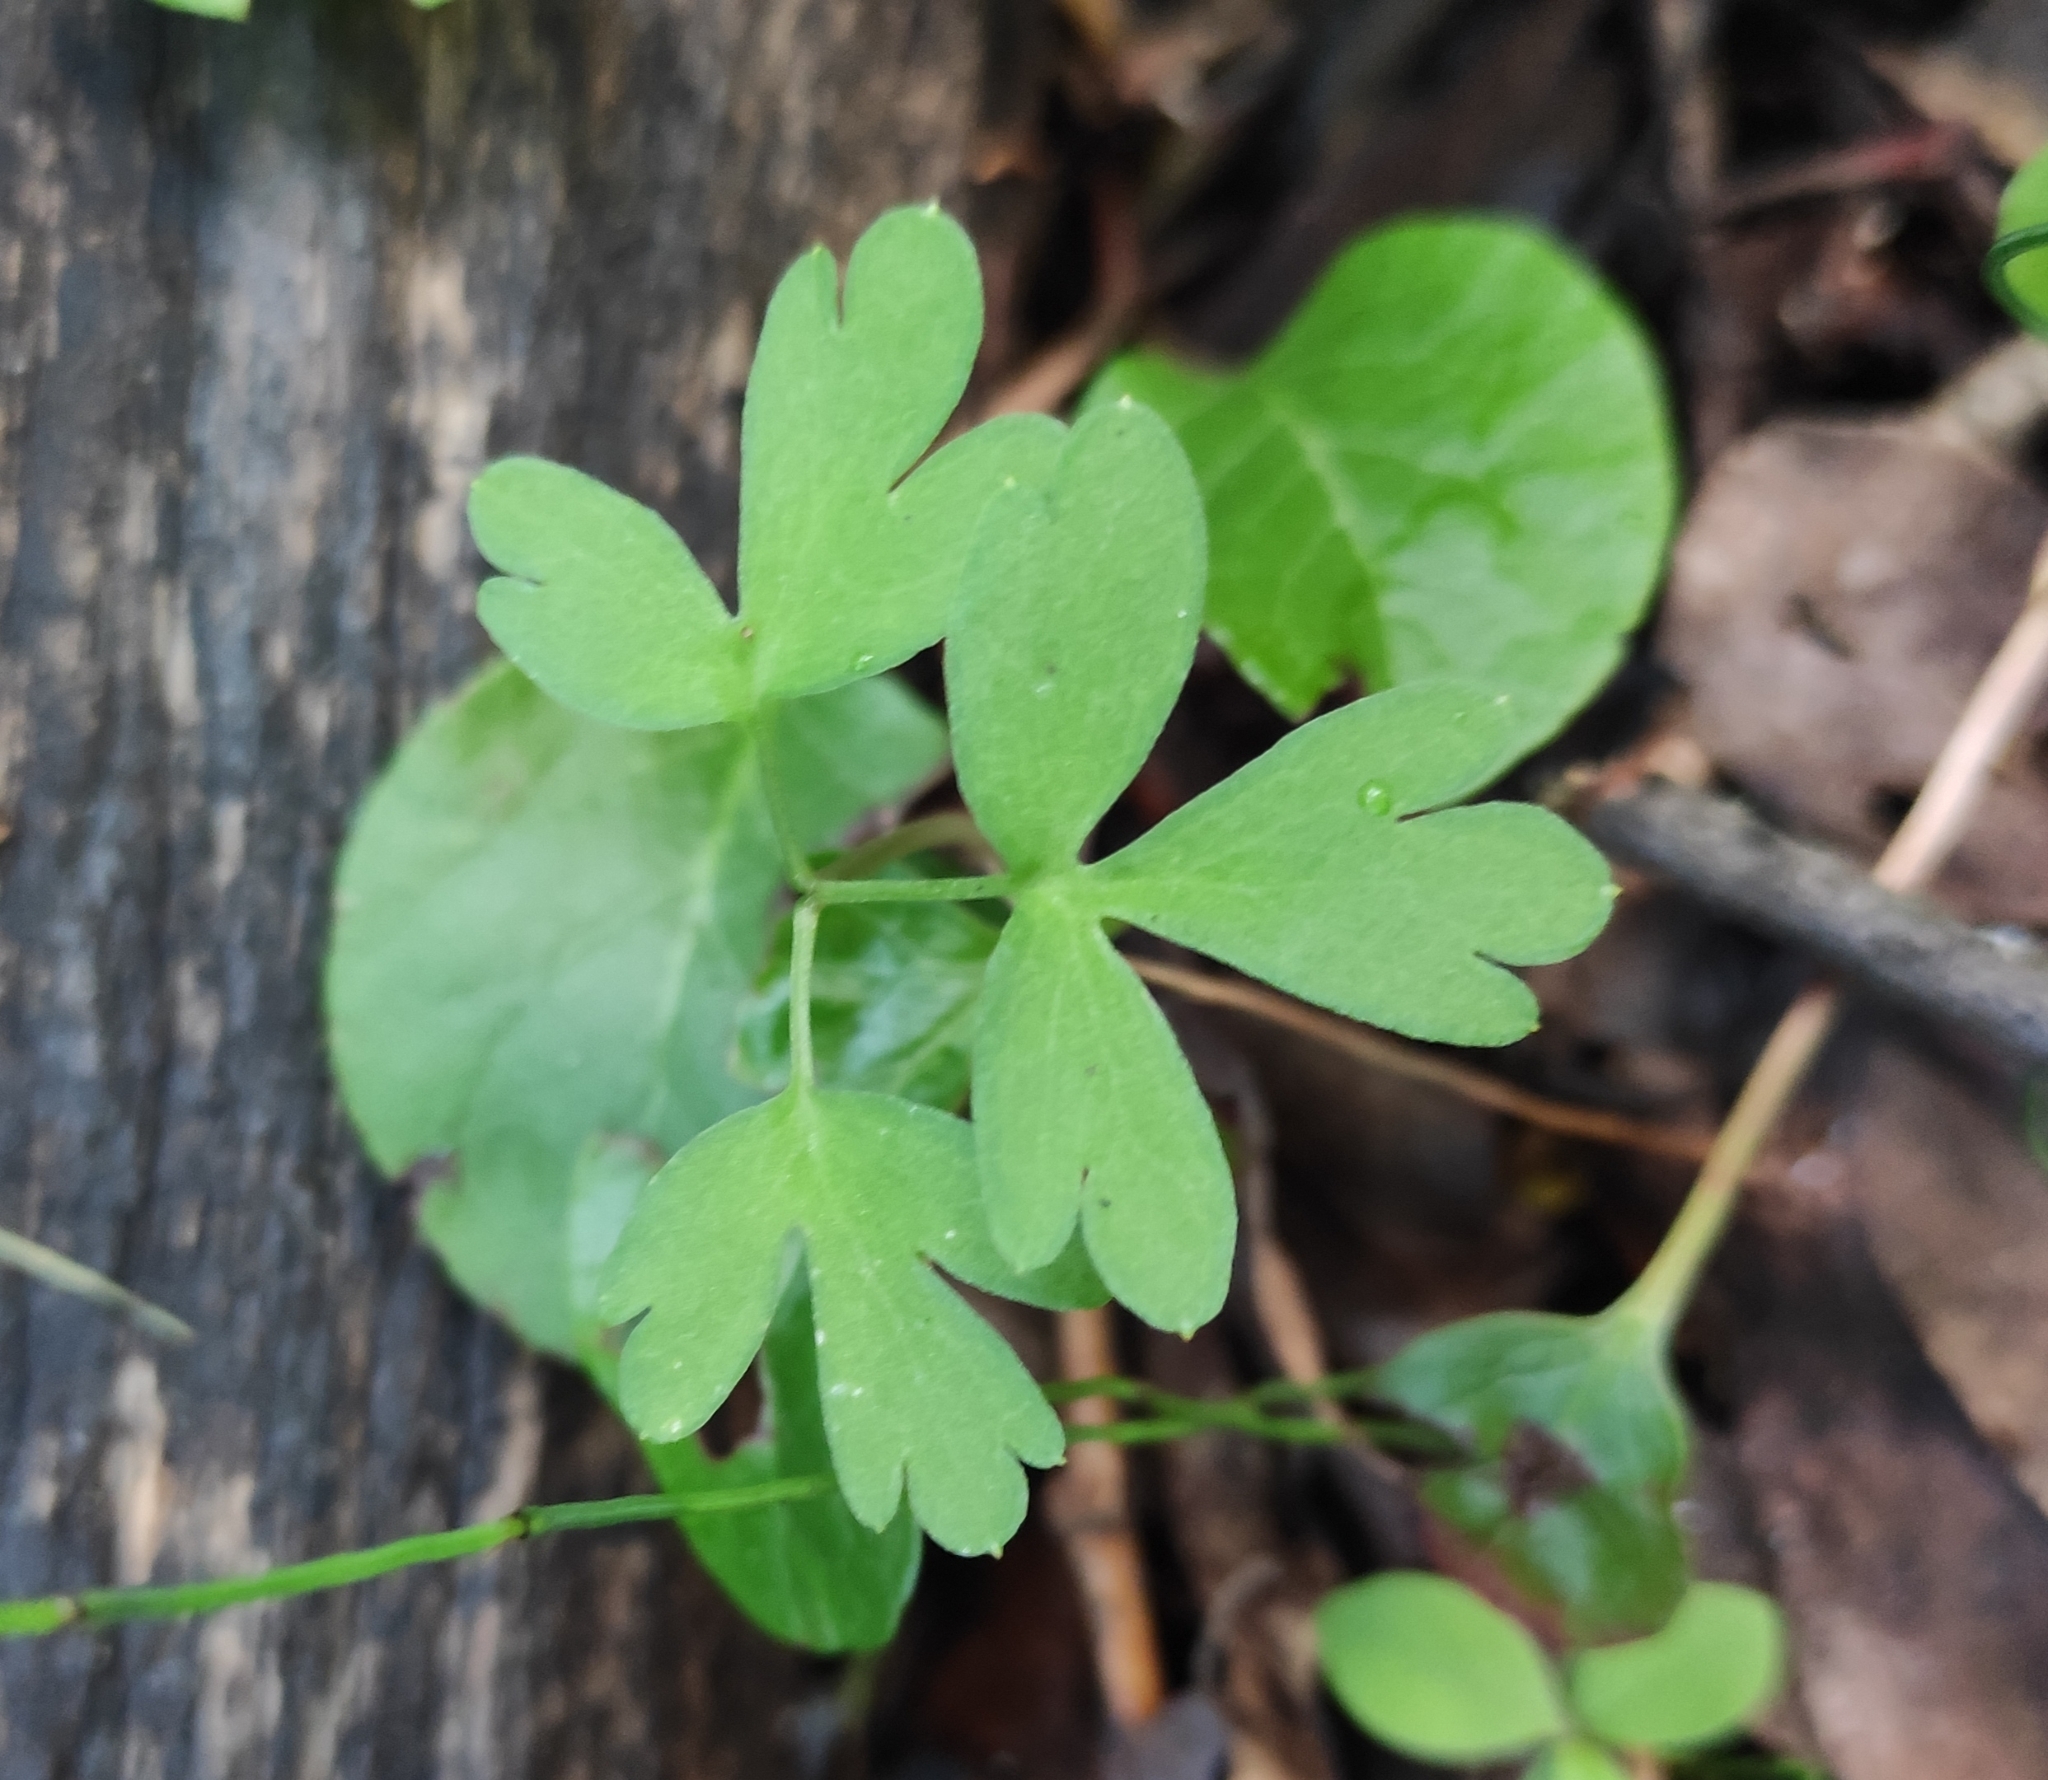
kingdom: Plantae
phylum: Tracheophyta
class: Magnoliopsida
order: Dipsacales
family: Viburnaceae
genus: Adoxa
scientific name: Adoxa moschatellina
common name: Moschatel
